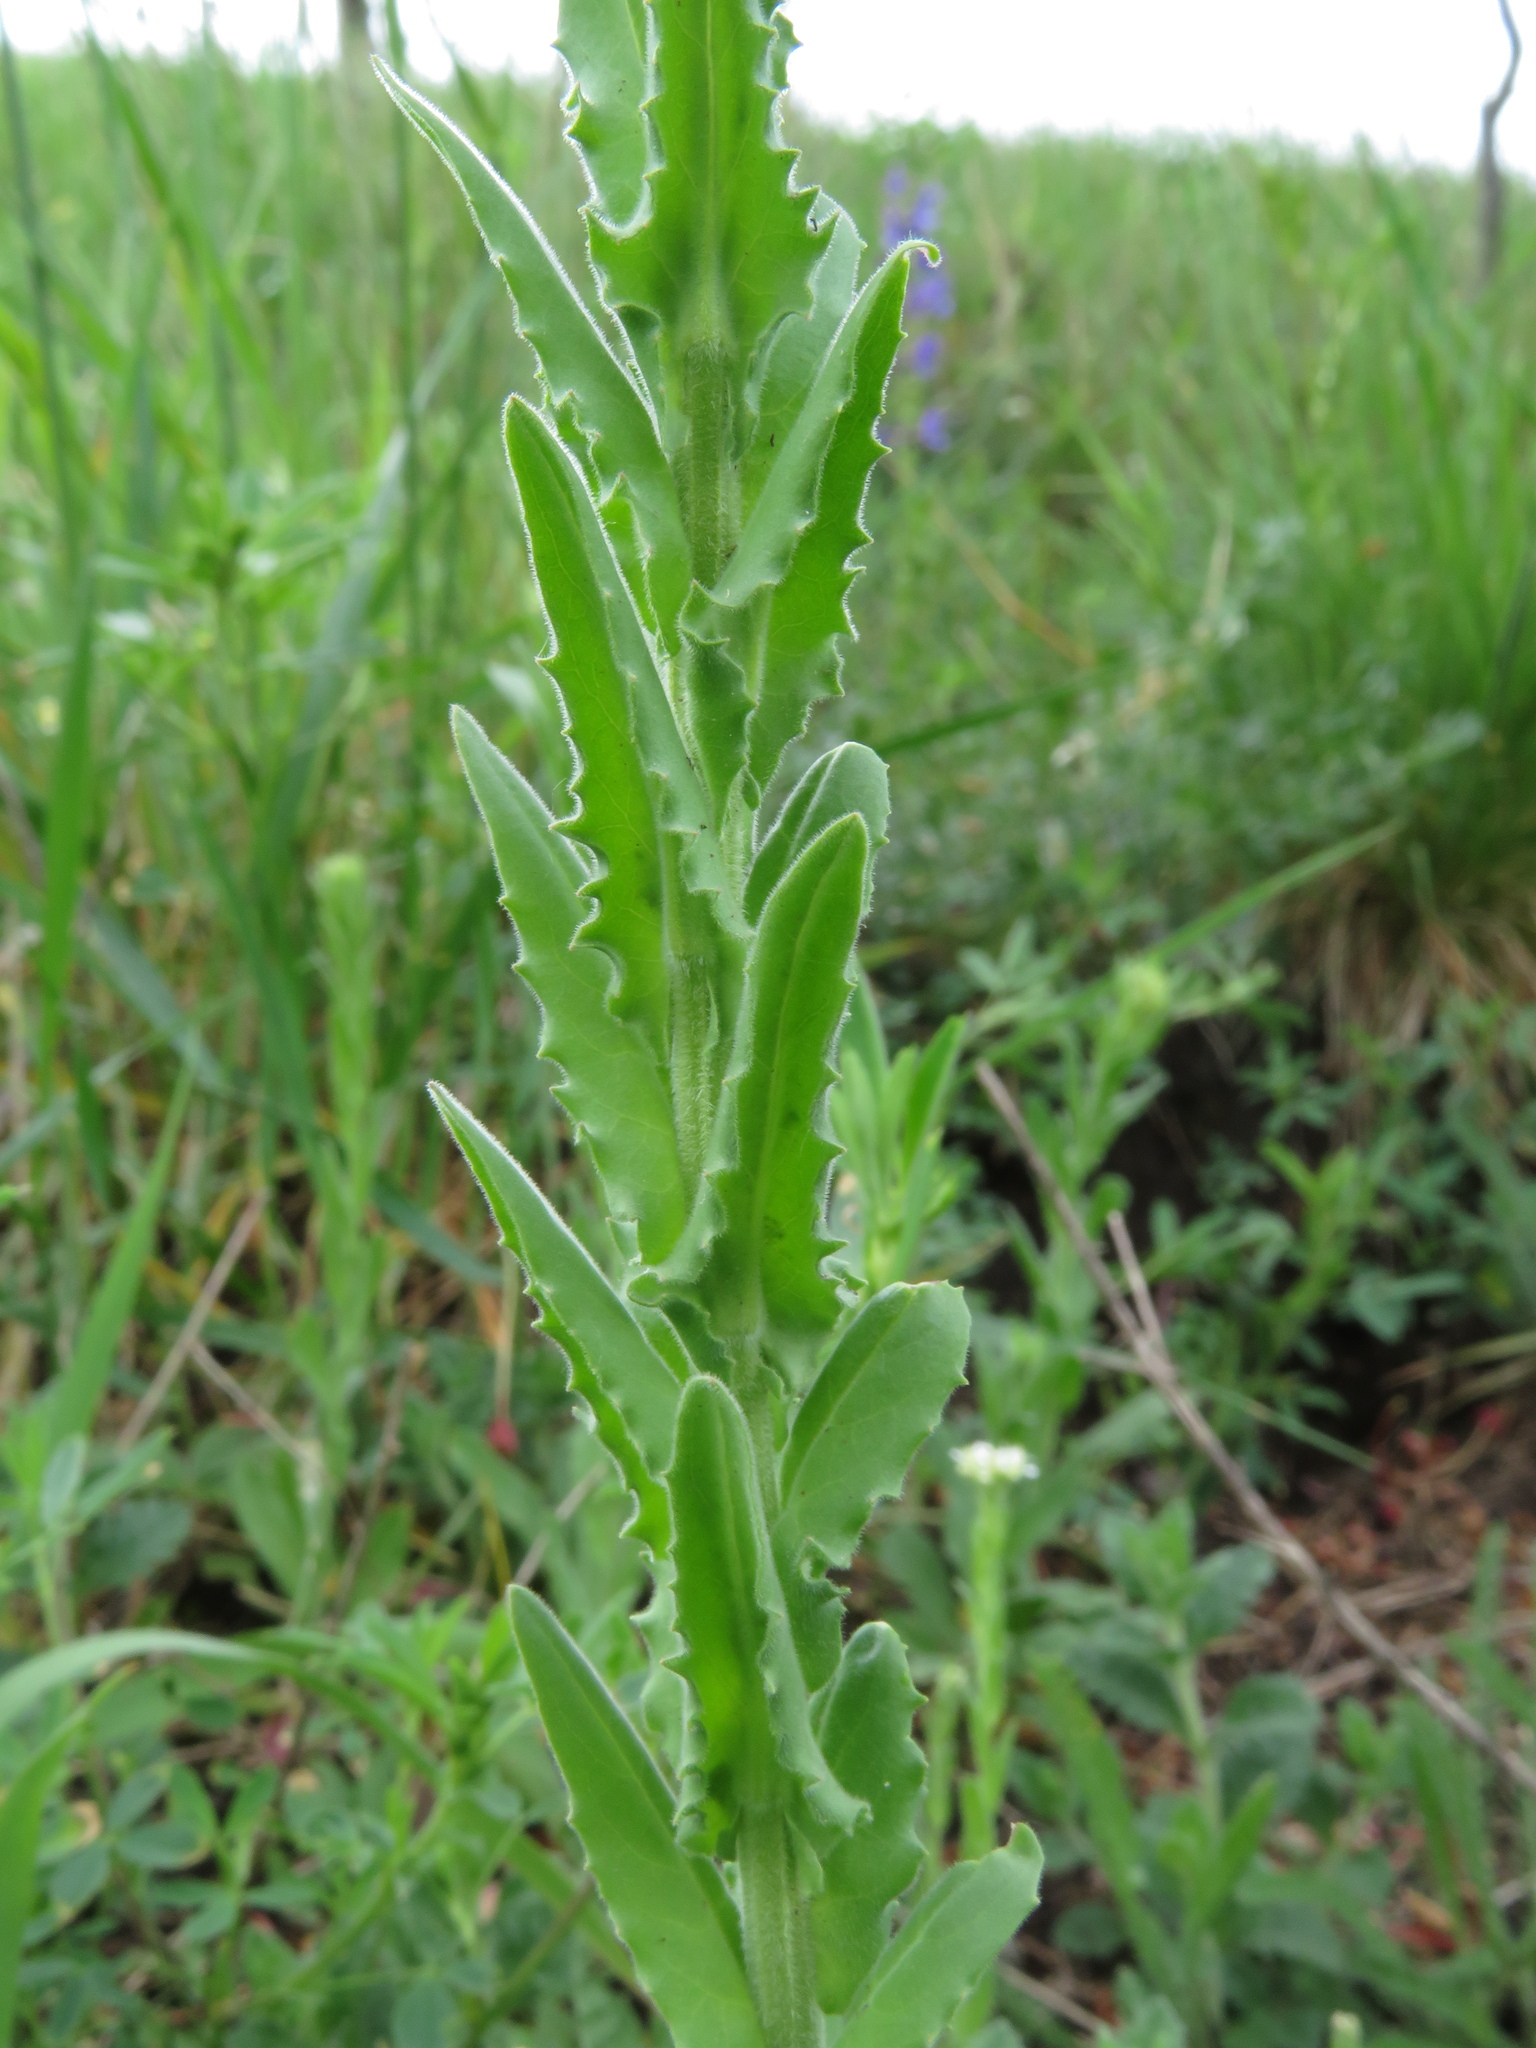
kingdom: Plantae
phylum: Tracheophyta
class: Magnoliopsida
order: Brassicales
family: Brassicaceae
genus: Lepidium
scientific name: Lepidium campestre
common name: Field pepperwort
